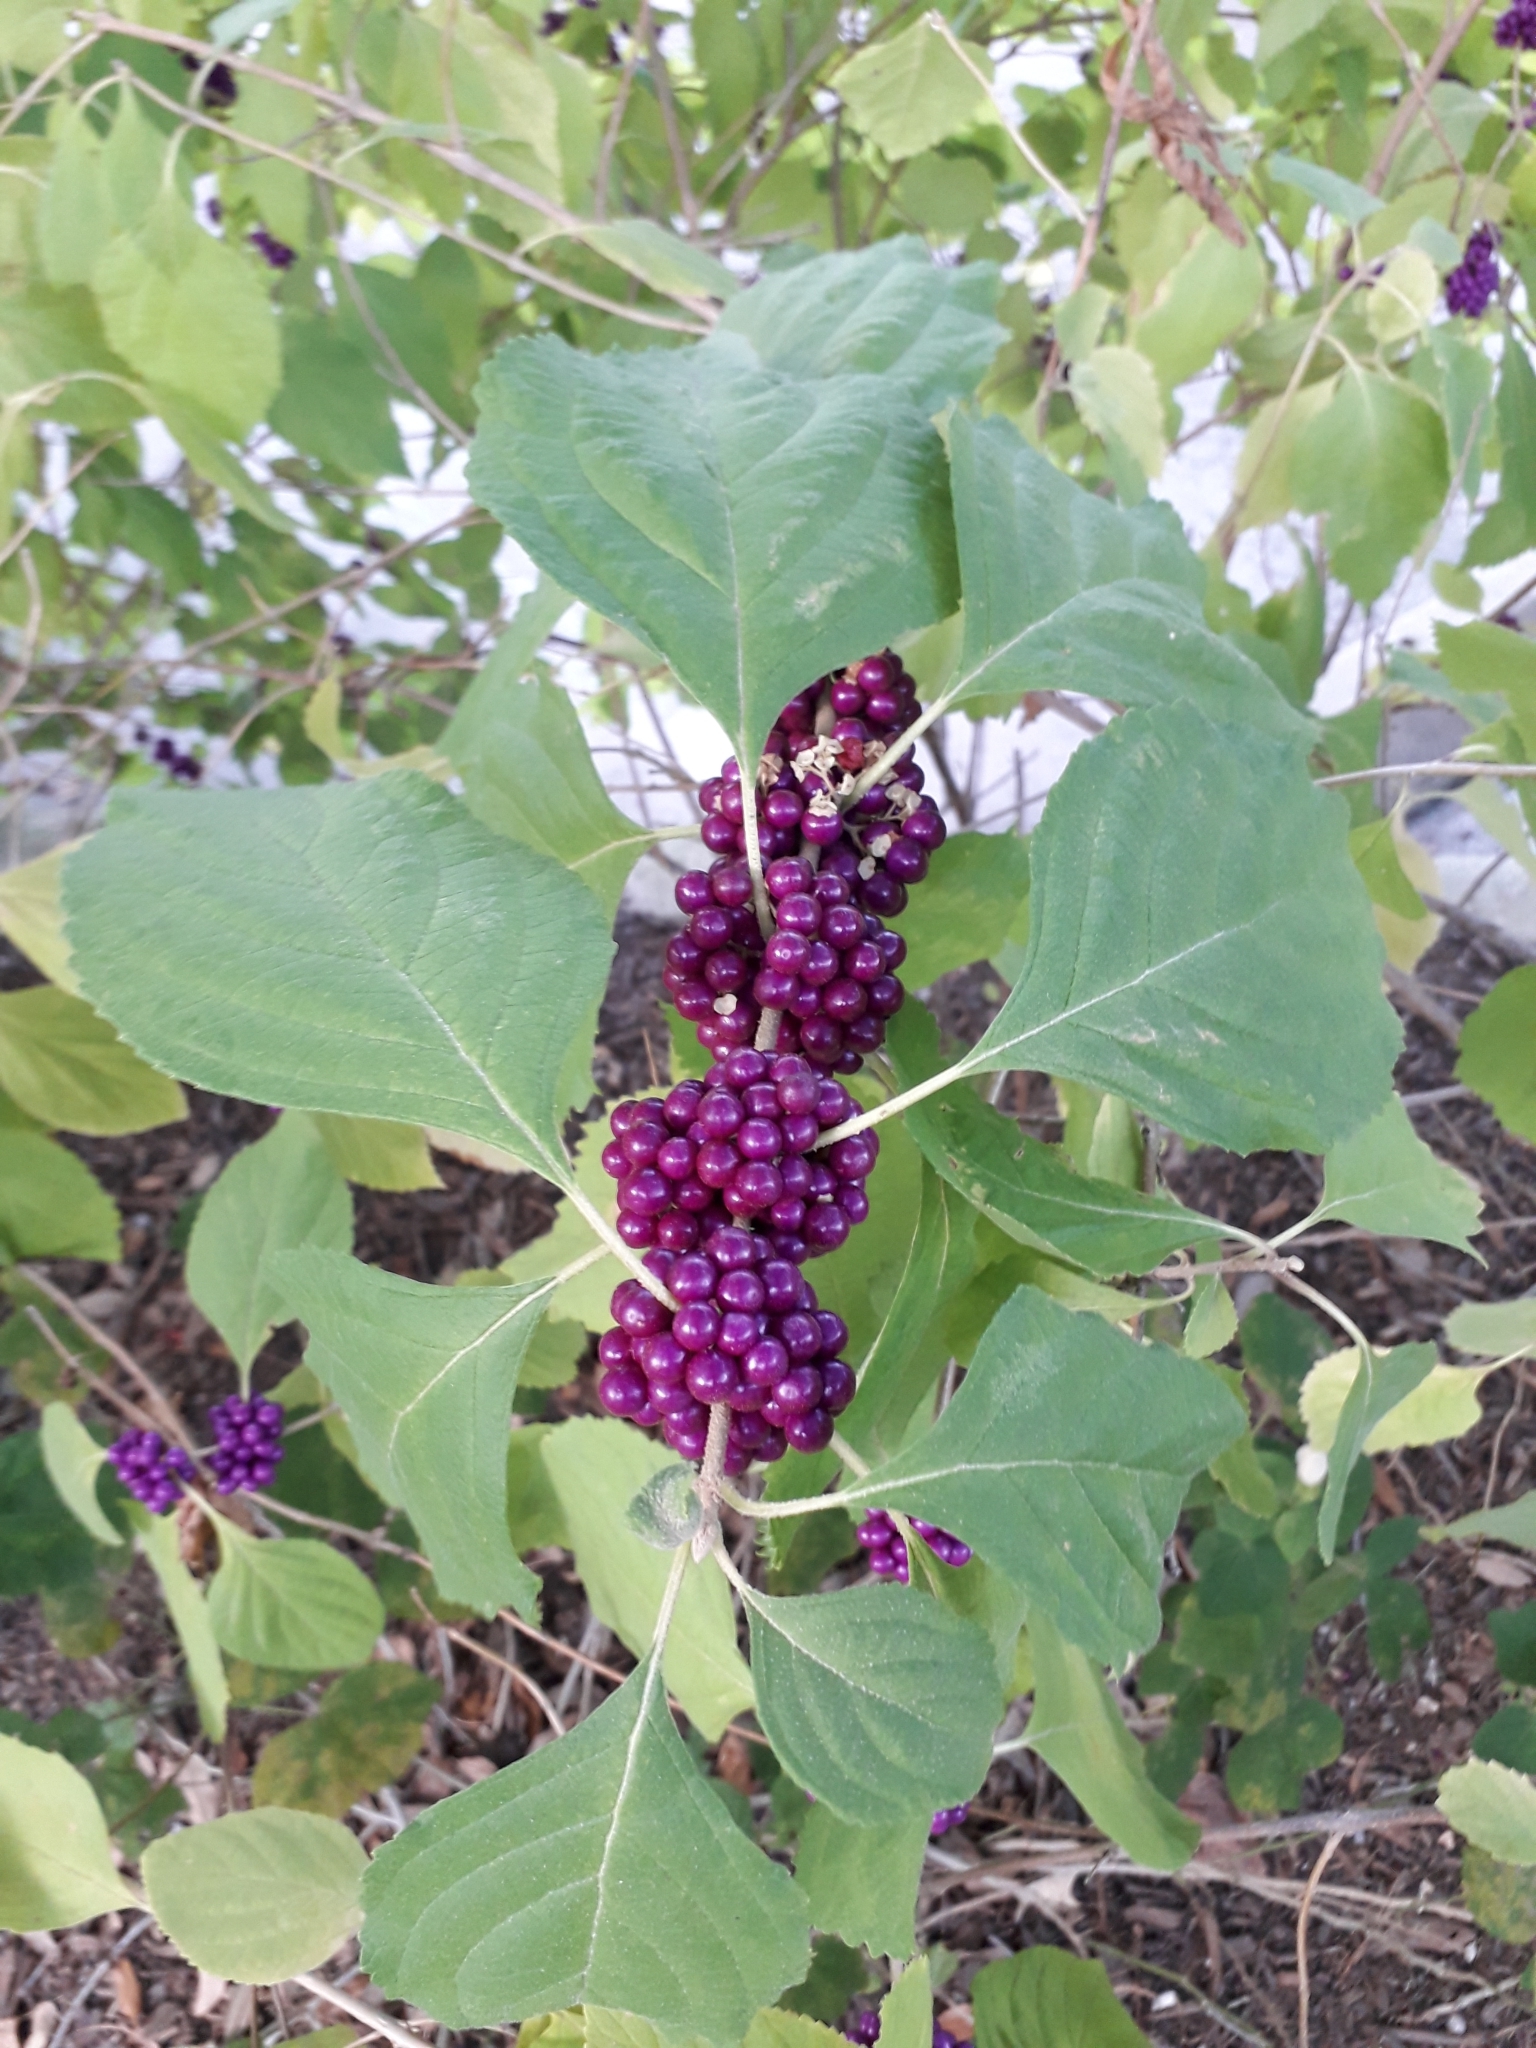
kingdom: Plantae
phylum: Tracheophyta
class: Magnoliopsida
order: Lamiales
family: Lamiaceae
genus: Callicarpa
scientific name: Callicarpa americana
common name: American beautyberry
